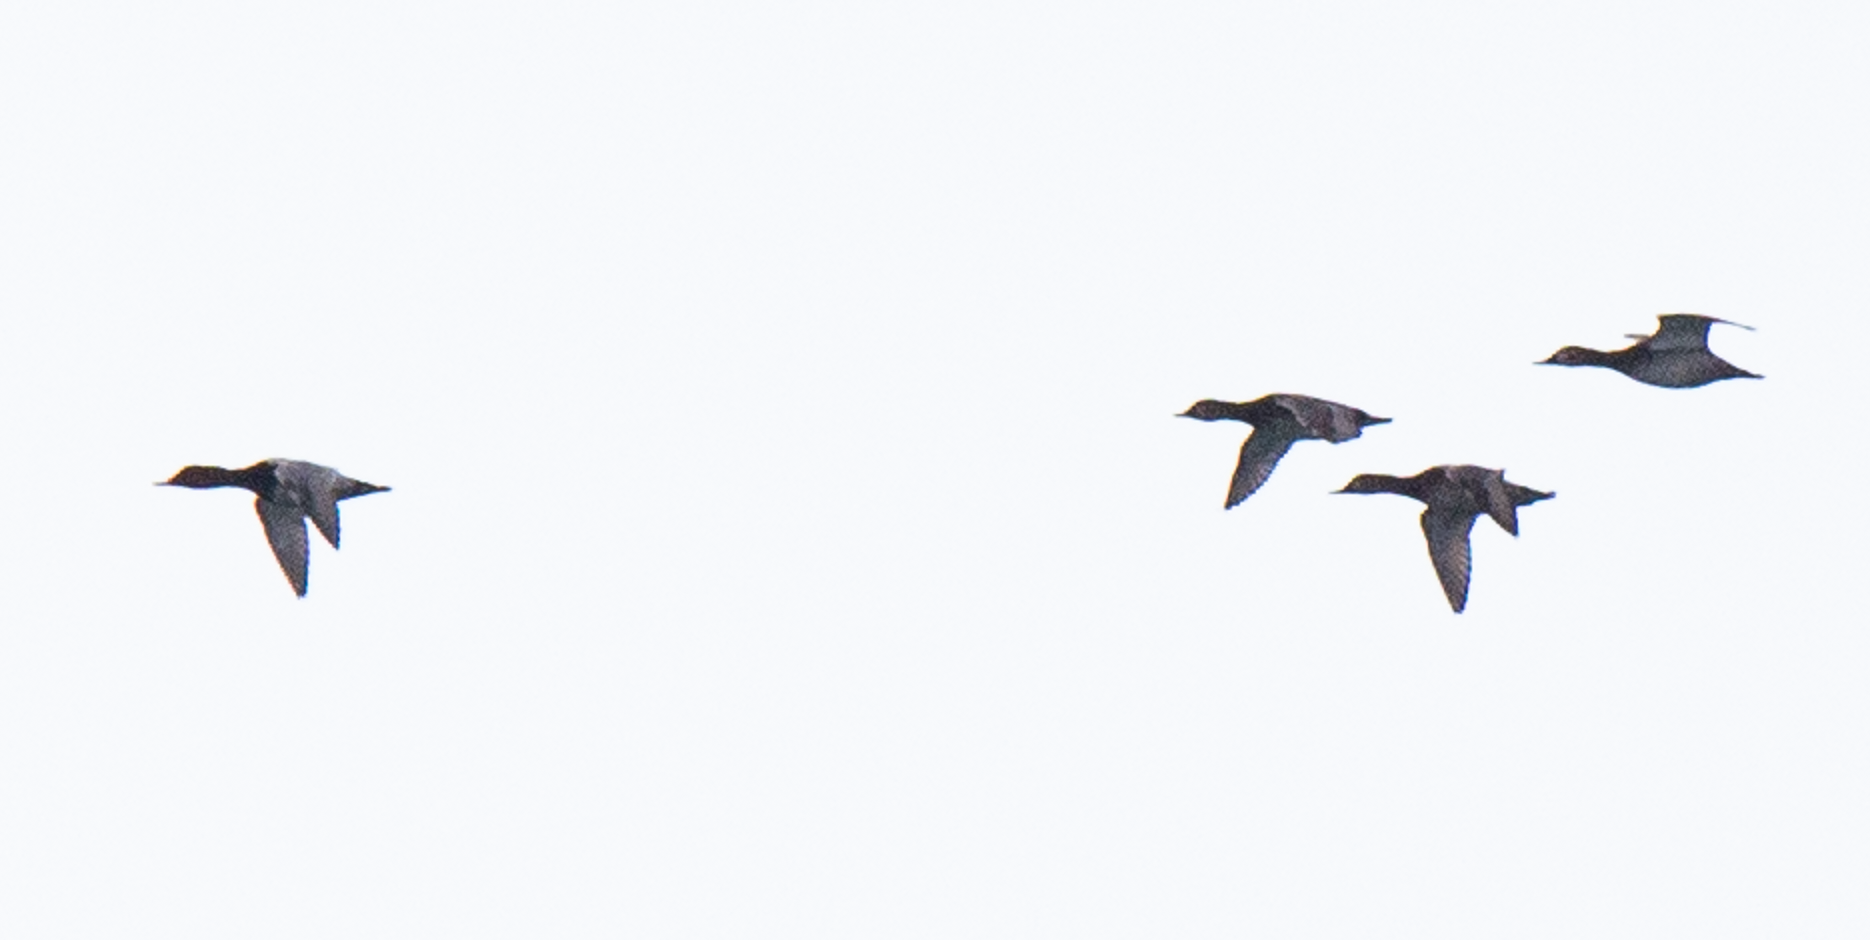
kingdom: Animalia
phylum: Chordata
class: Aves
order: Anseriformes
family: Anatidae
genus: Aythya
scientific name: Aythya ferina
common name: Common pochard
